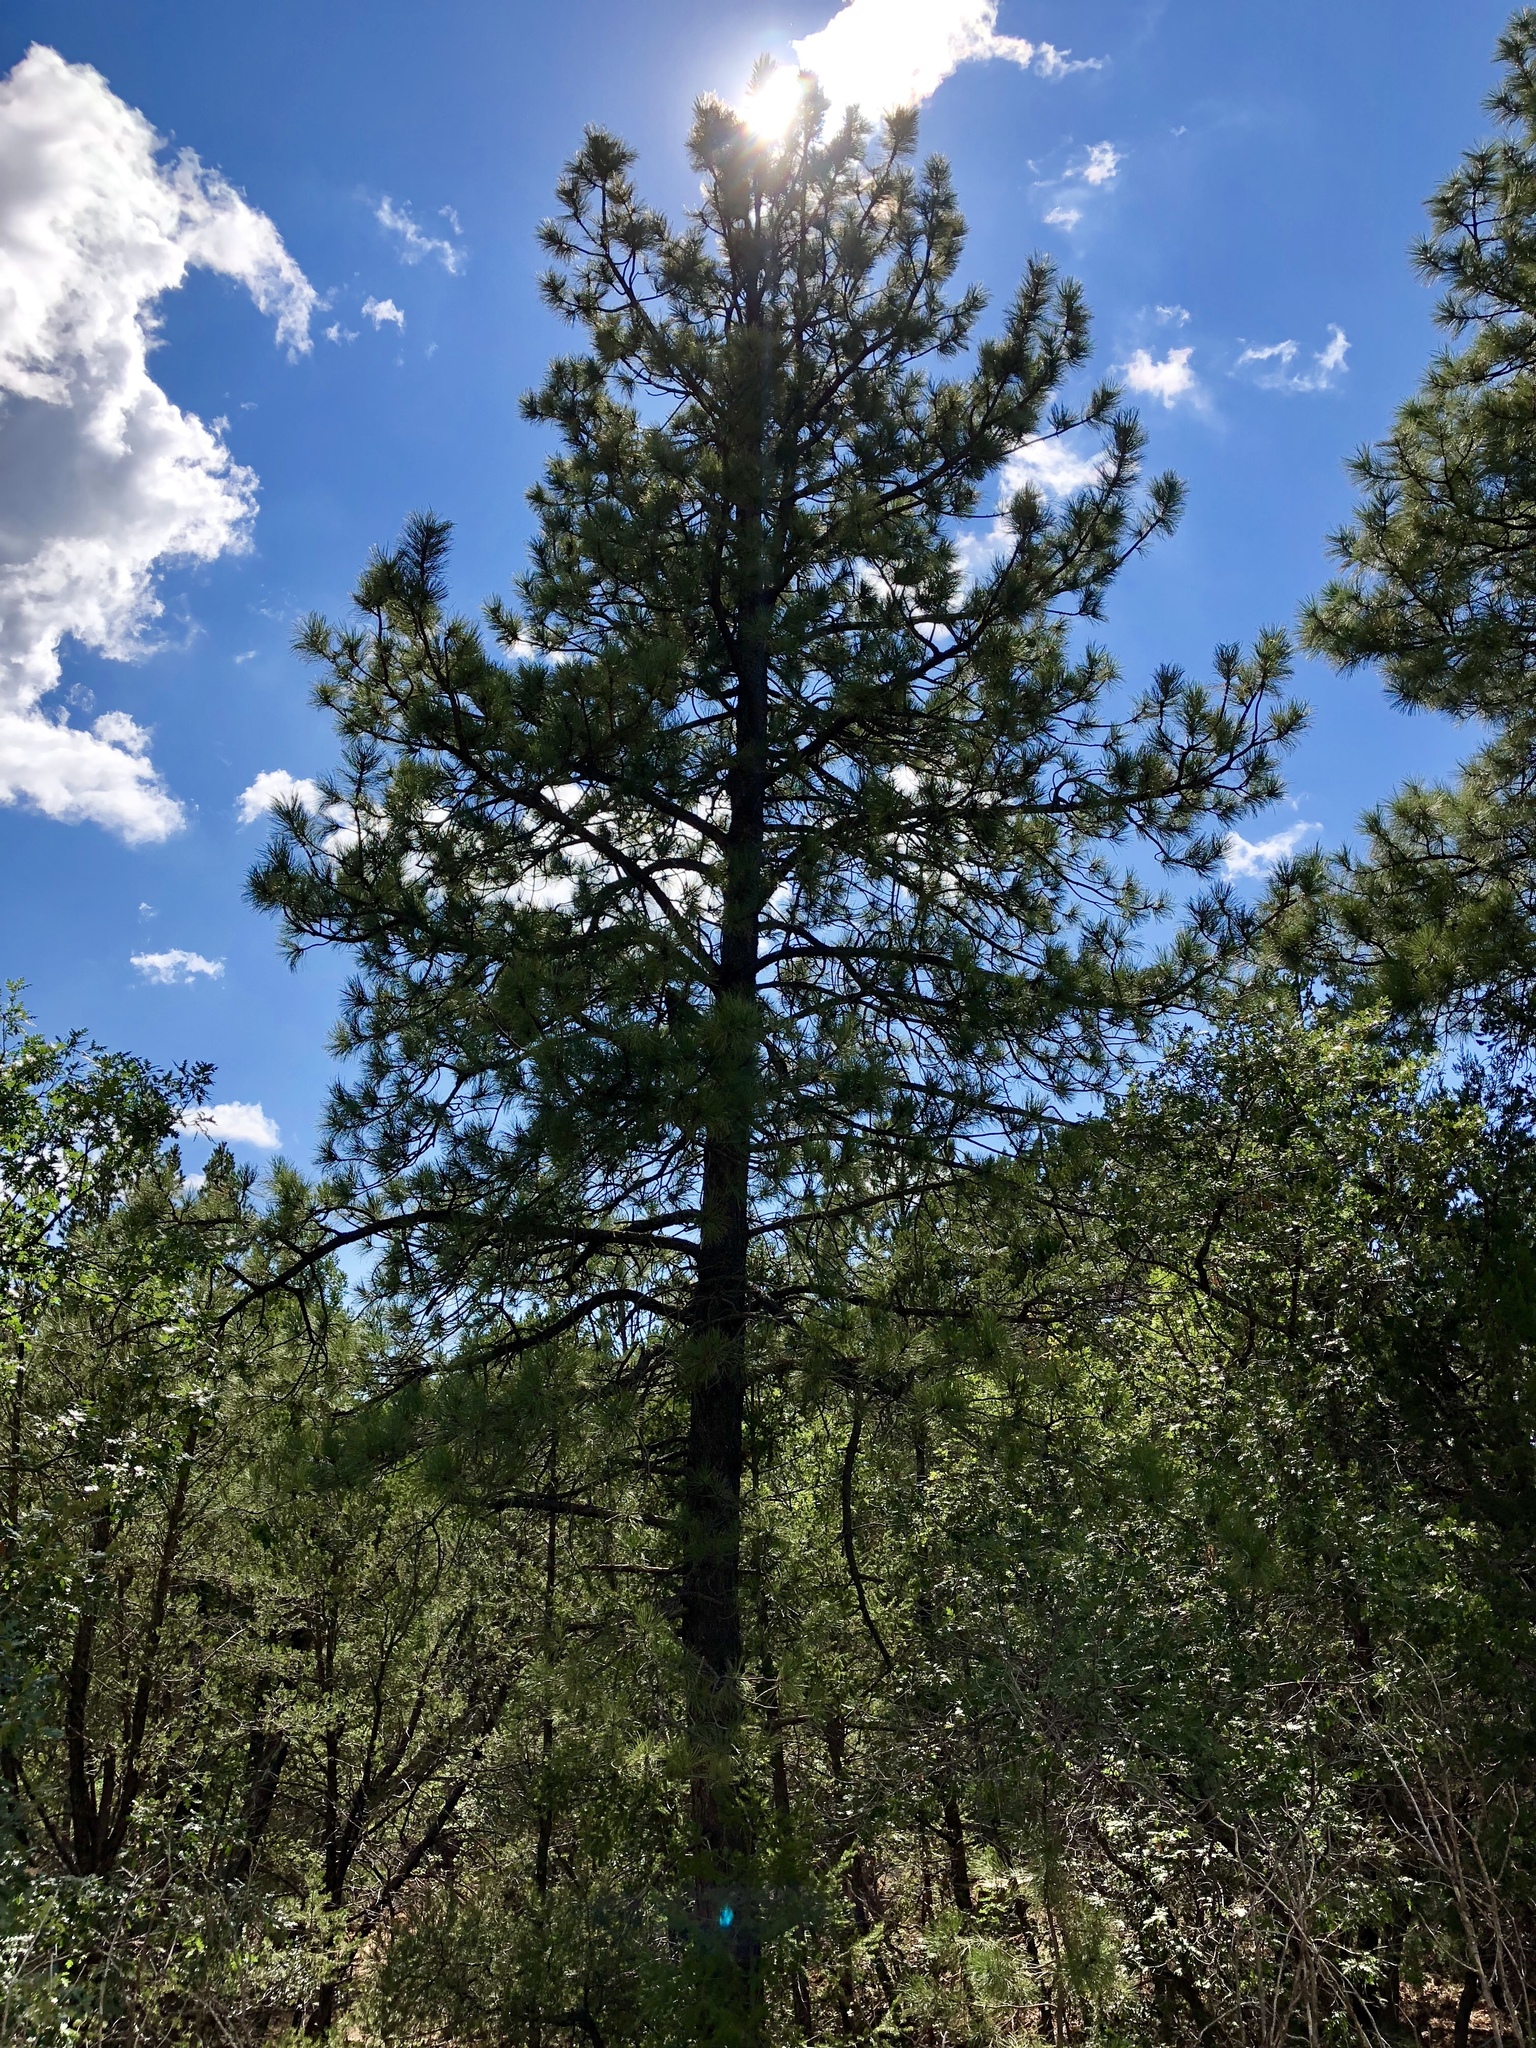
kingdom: Plantae
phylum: Tracheophyta
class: Pinopsida
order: Pinales
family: Pinaceae
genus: Pinus
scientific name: Pinus ponderosa
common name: Western yellow-pine
